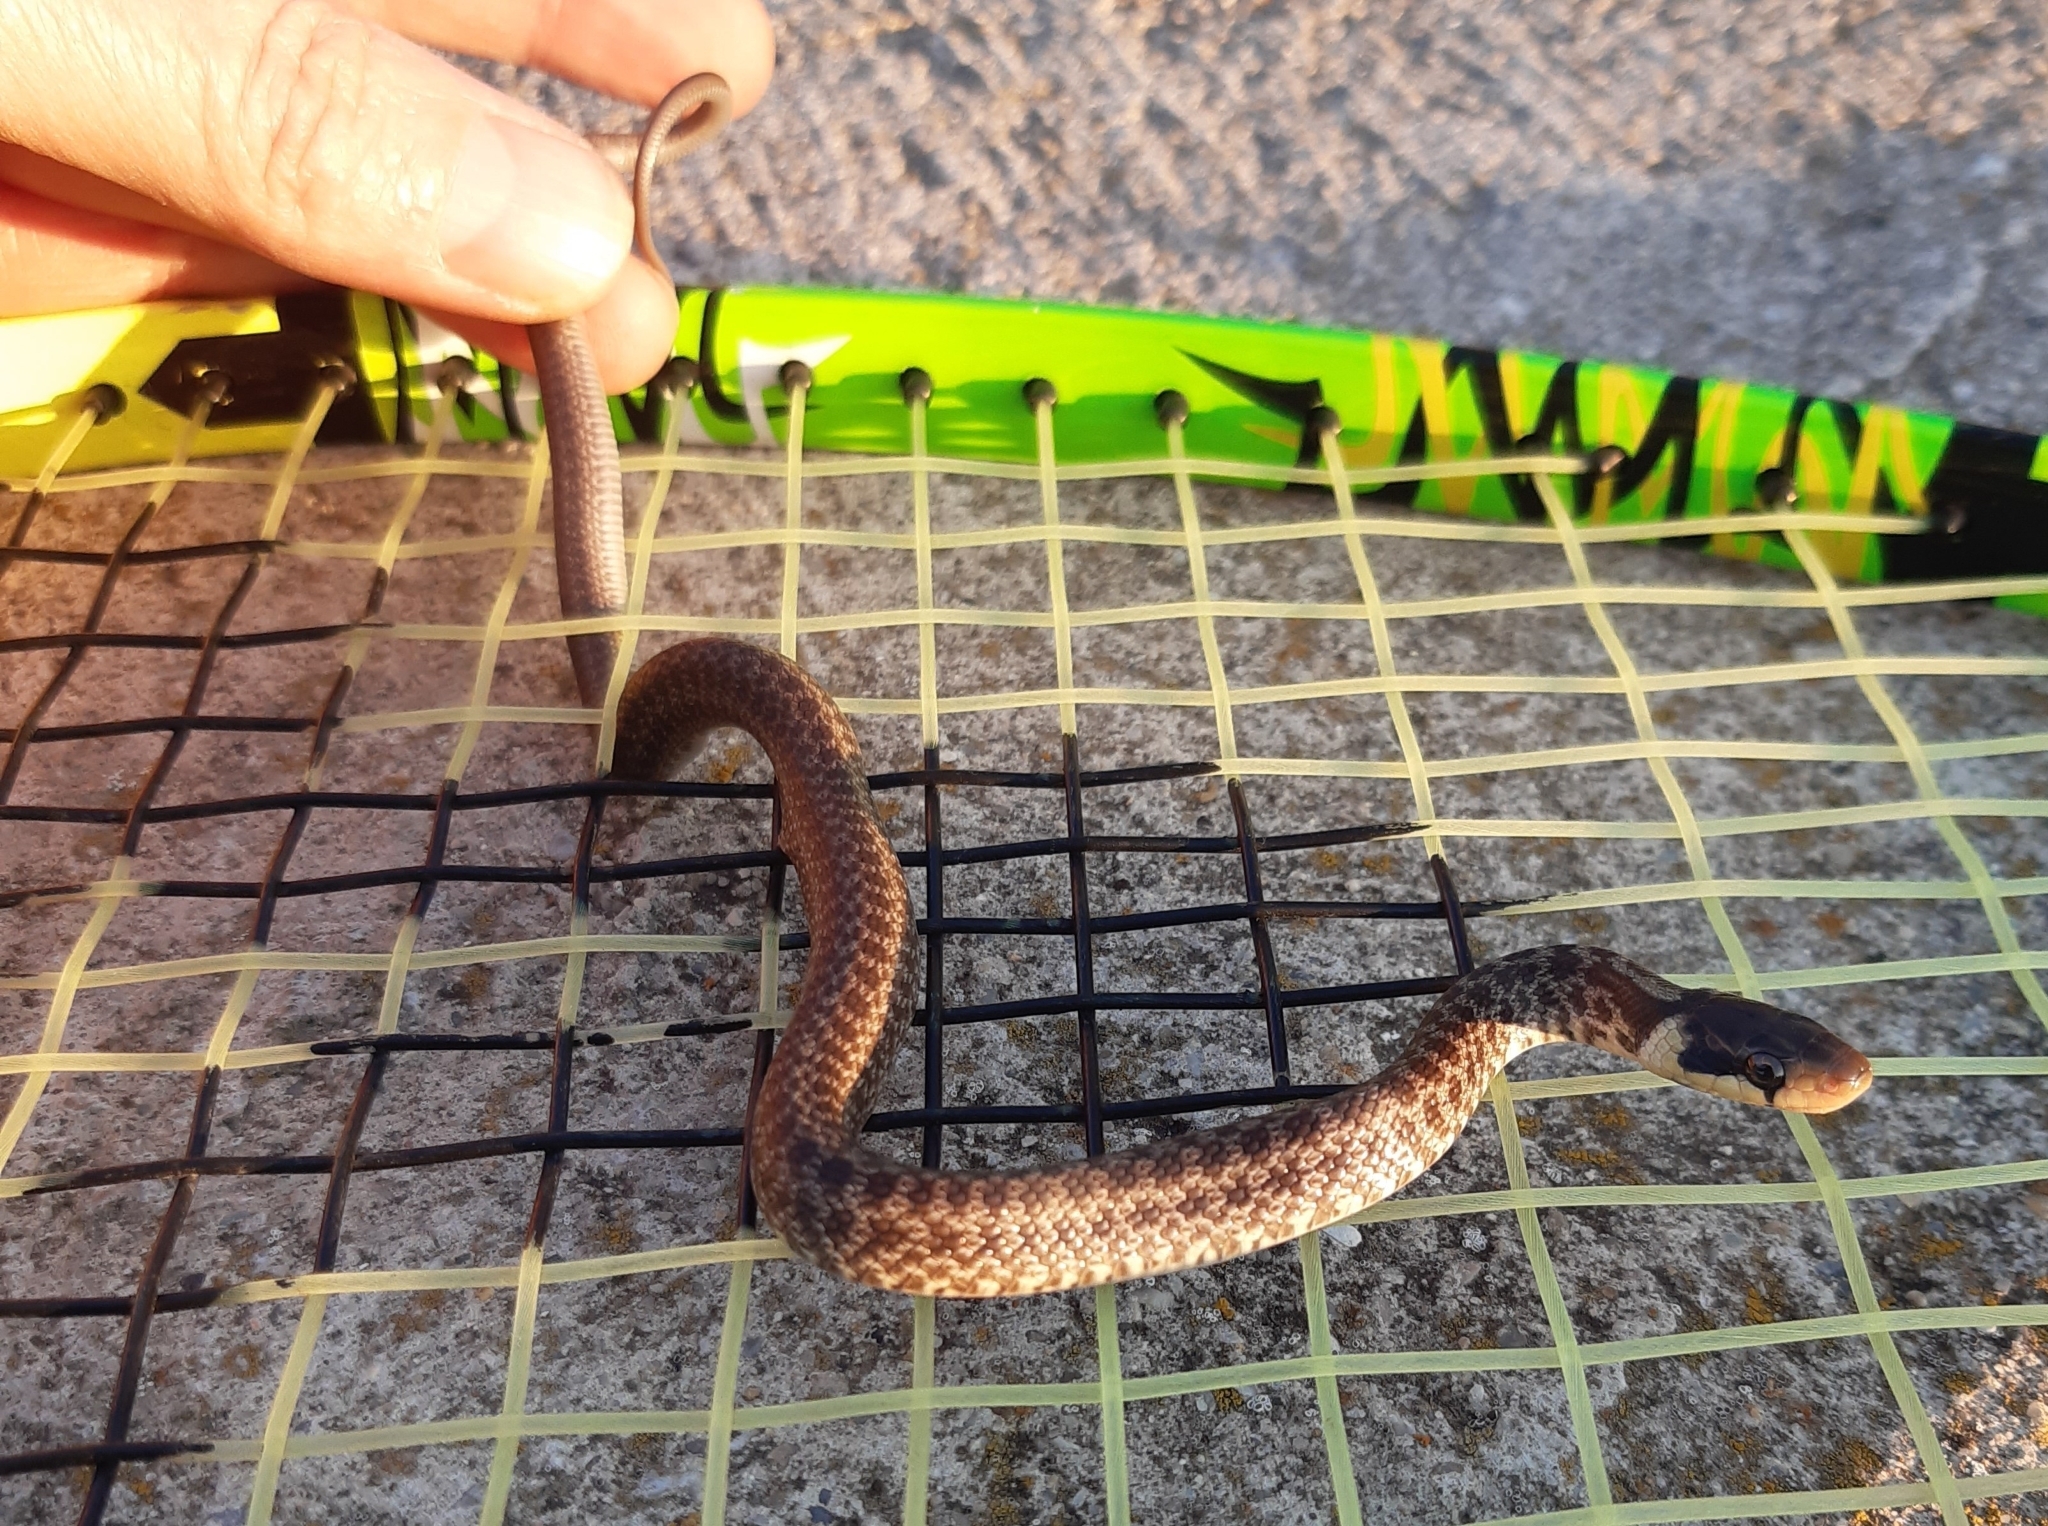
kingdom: Animalia
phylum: Chordata
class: Squamata
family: Colubridae
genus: Zamenis
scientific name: Zamenis longissimus
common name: Aesculapean snake
